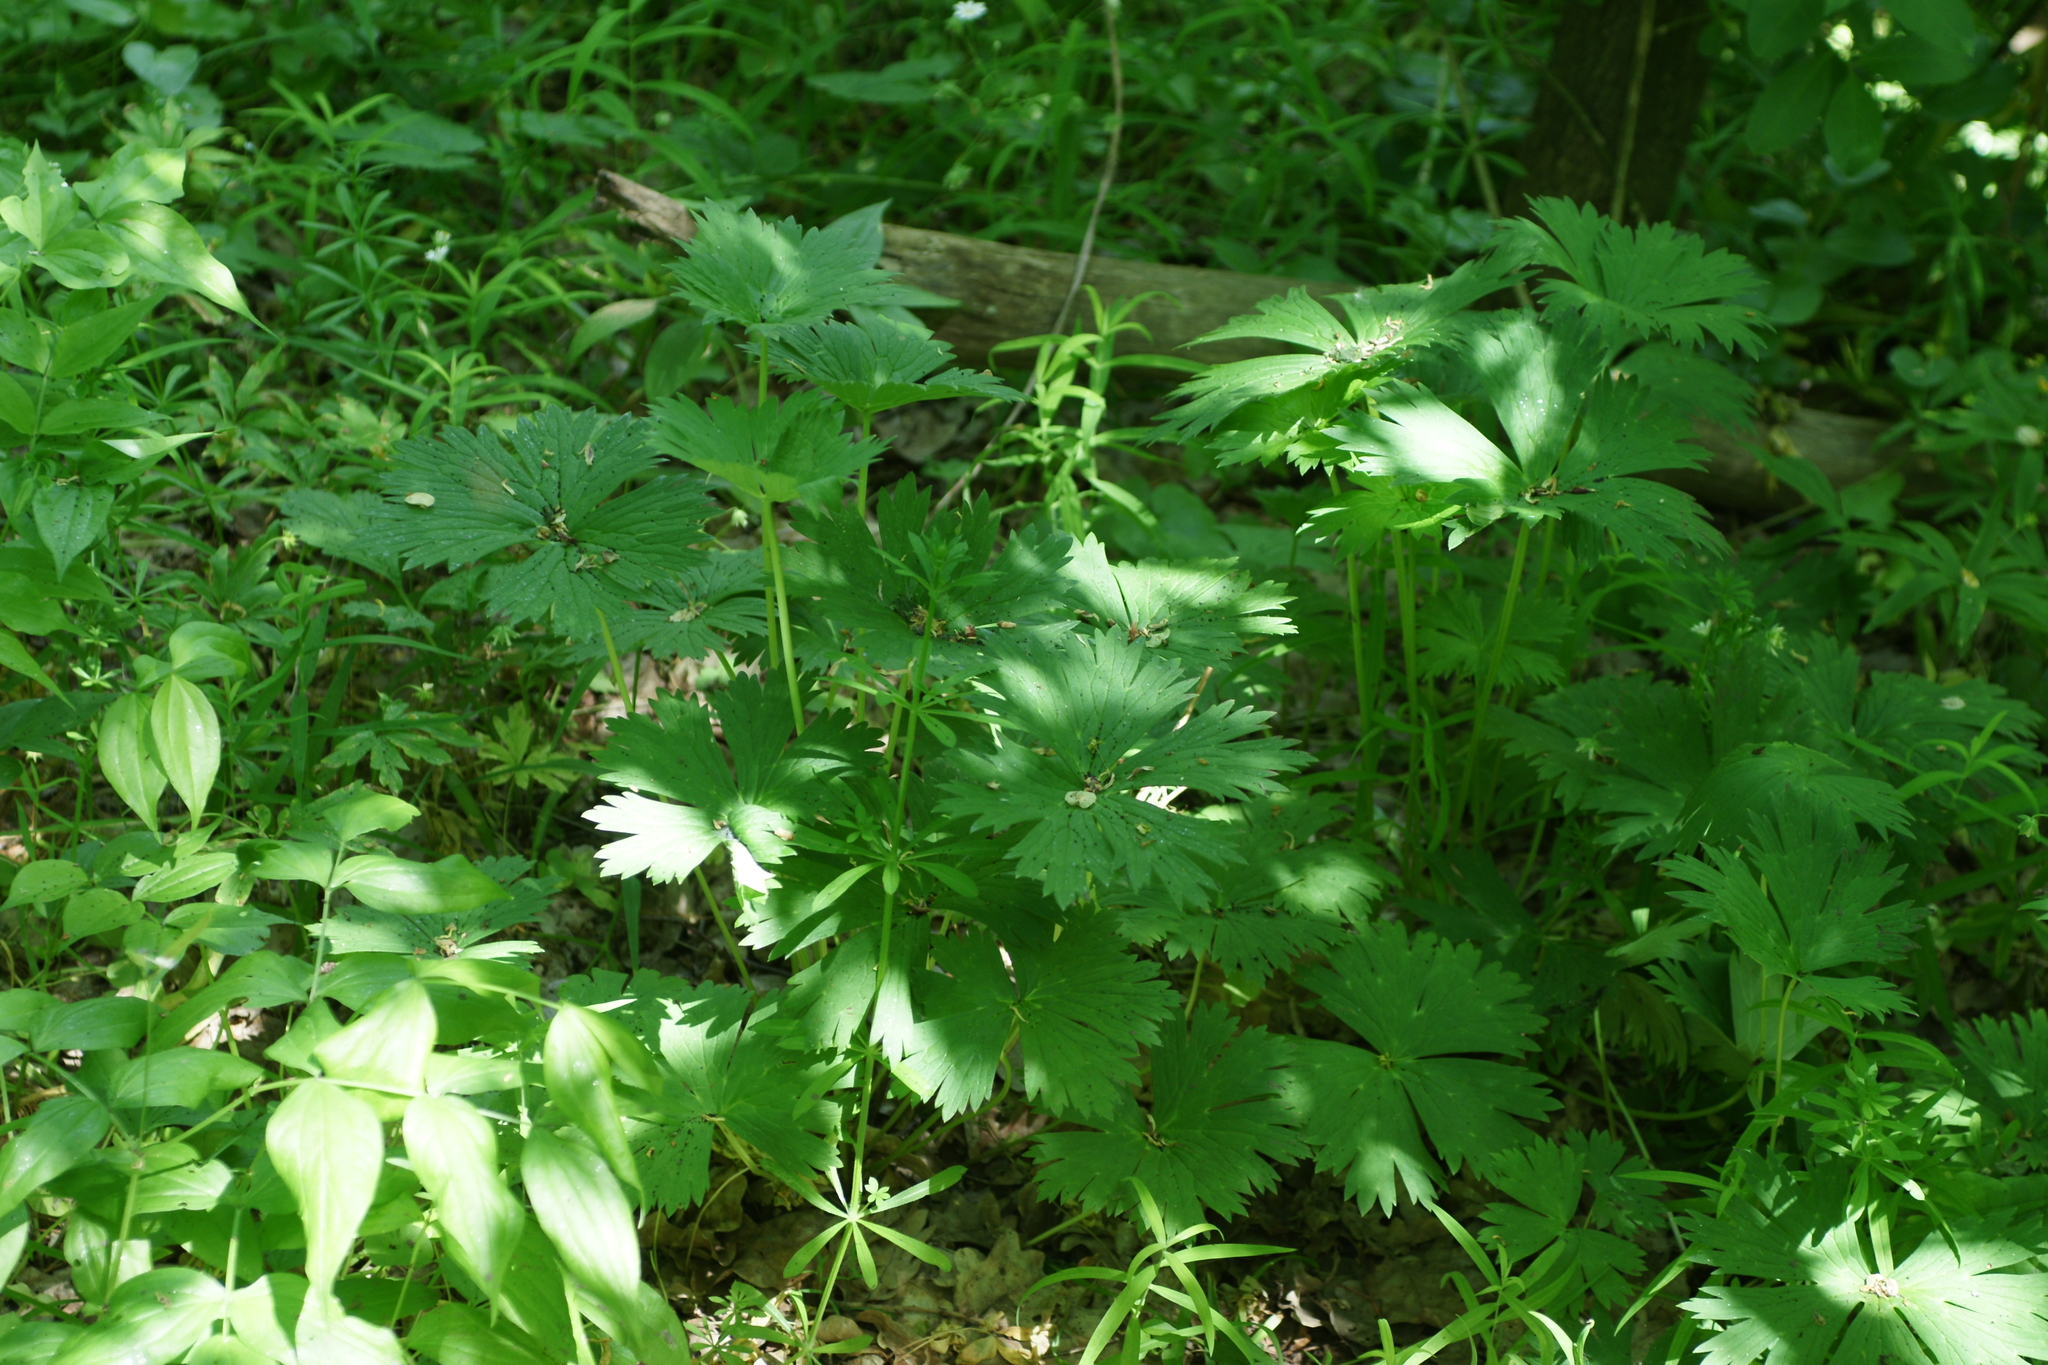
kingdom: Plantae
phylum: Tracheophyta
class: Magnoliopsida
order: Ranunculales
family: Ranunculaceae
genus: Aconitum
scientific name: Aconitum lasiostomum
